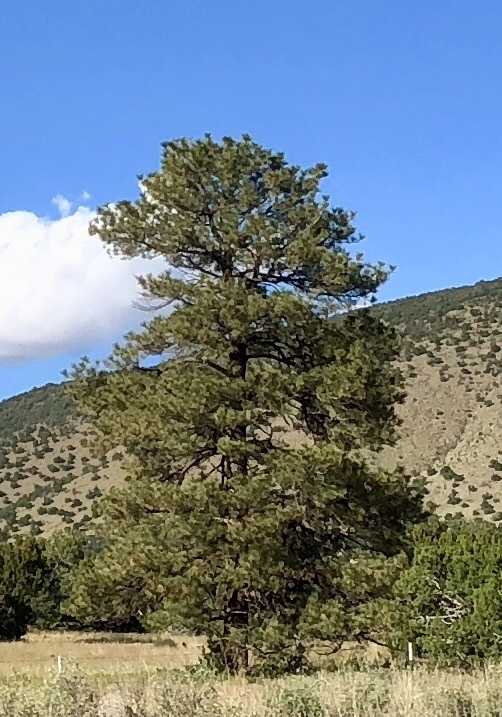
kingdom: Plantae
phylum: Tracheophyta
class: Pinopsida
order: Pinales
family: Pinaceae
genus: Pinus
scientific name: Pinus ponderosa
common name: Western yellow-pine
